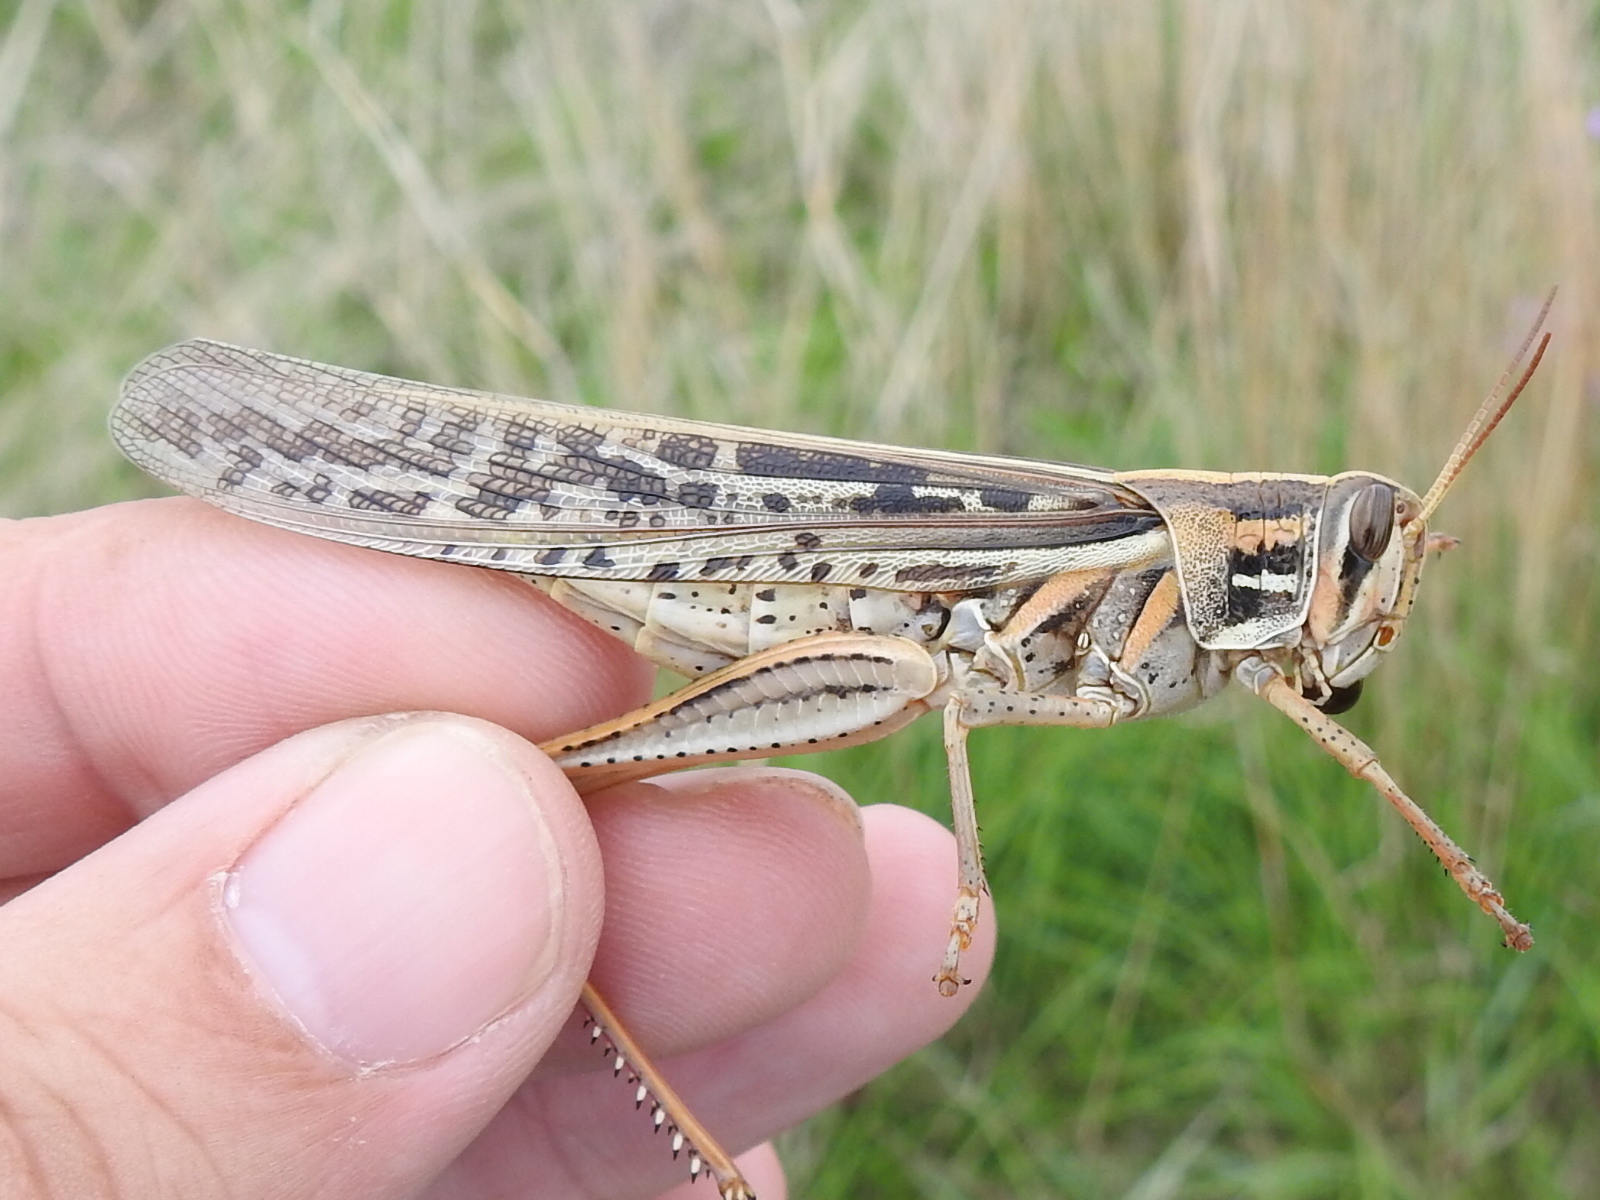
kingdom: Animalia
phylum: Arthropoda
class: Insecta
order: Orthoptera
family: Acrididae
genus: Schistocerca
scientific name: Schistocerca americana
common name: American bird locust
